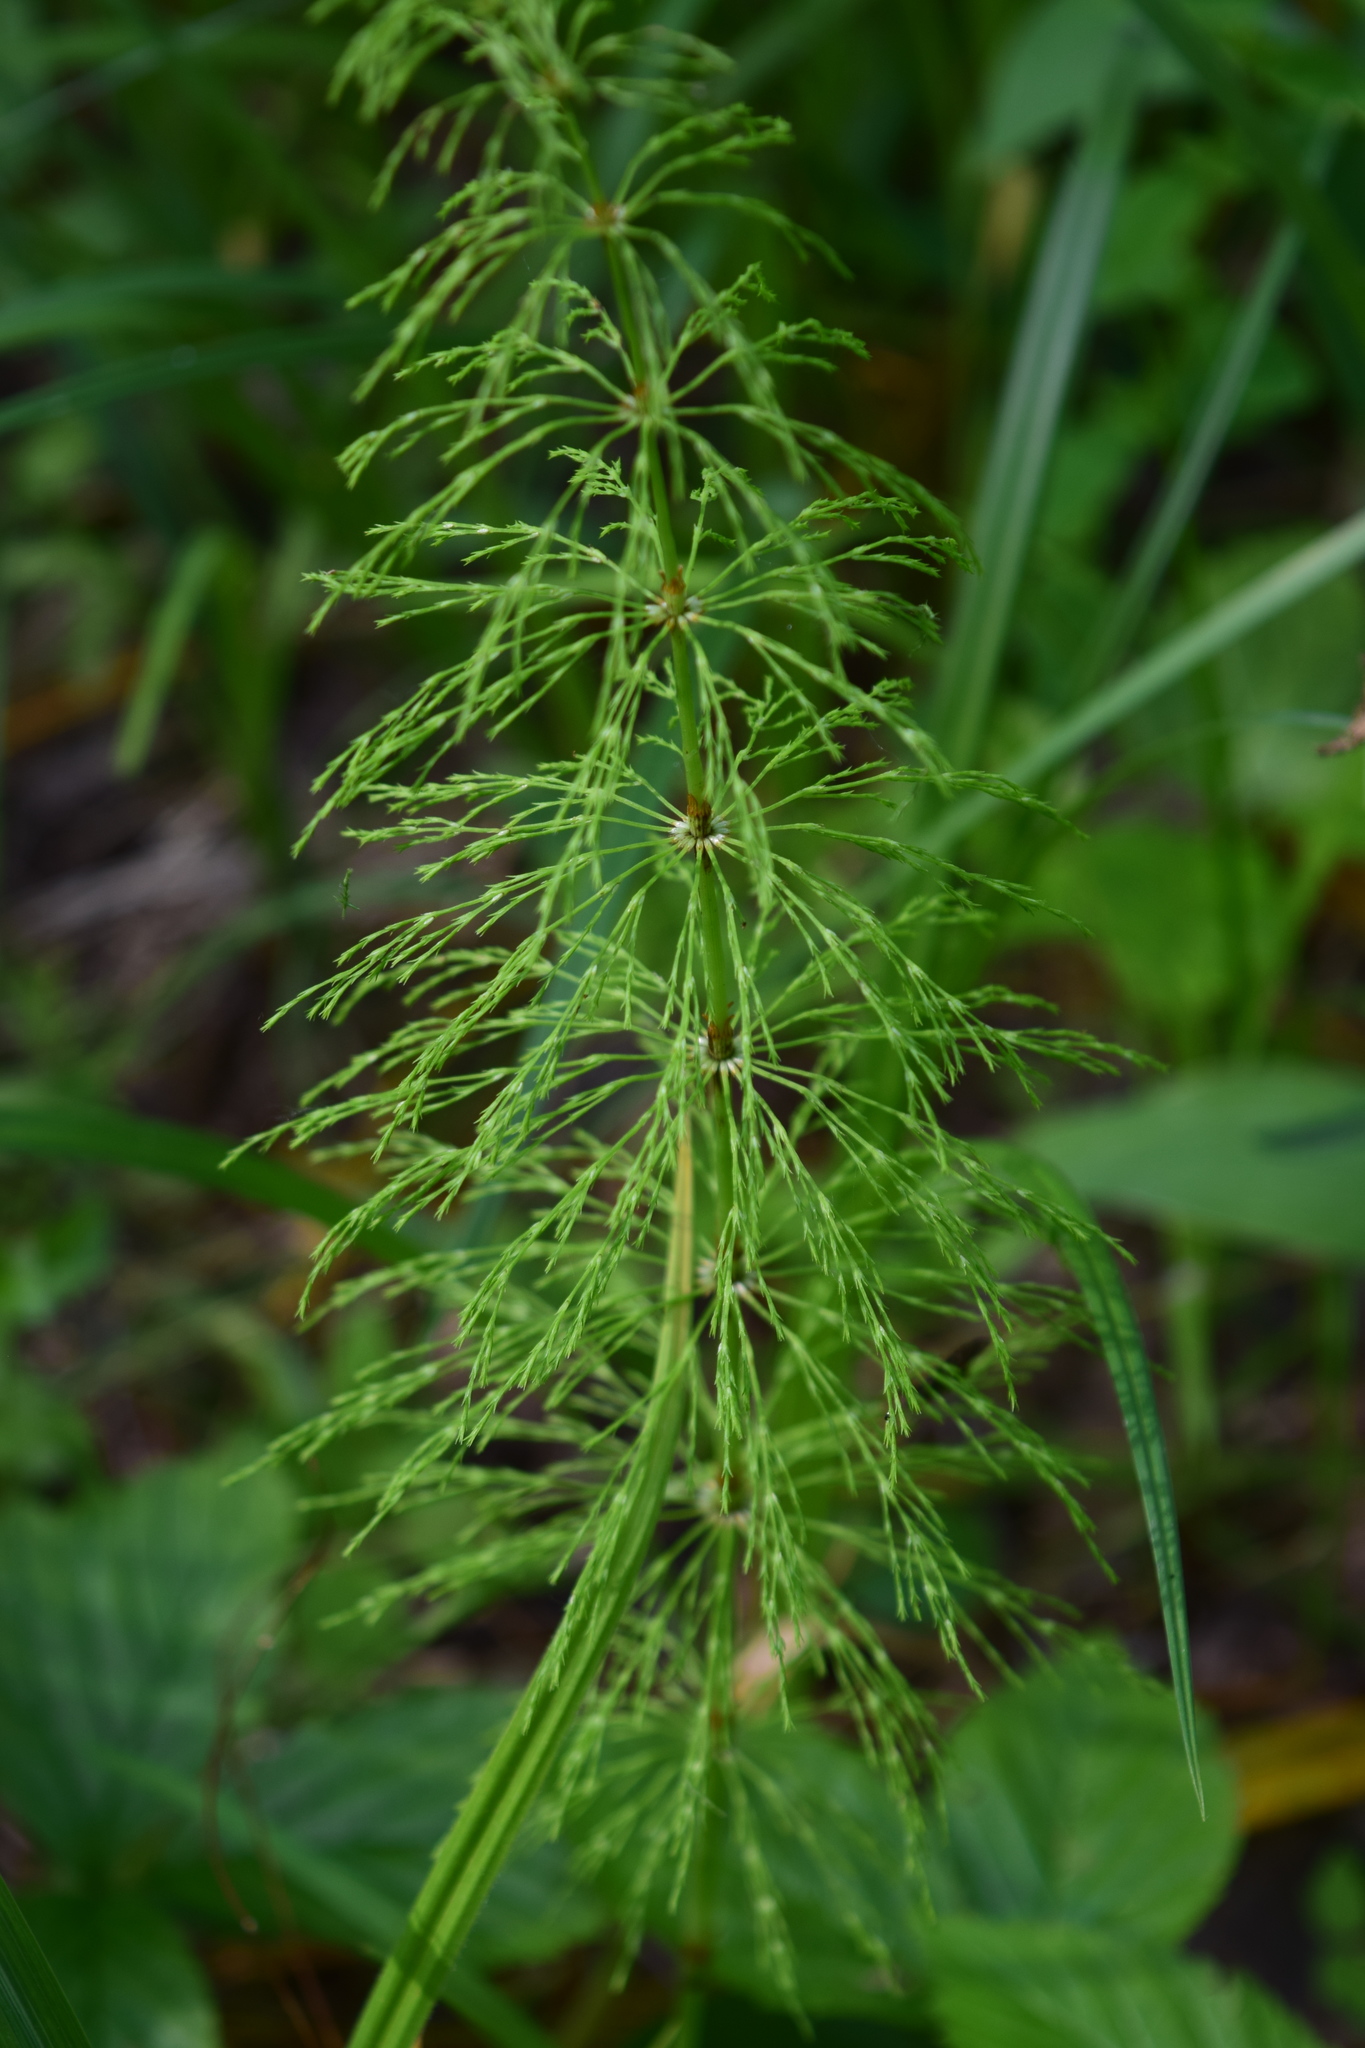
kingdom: Plantae
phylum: Tracheophyta
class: Polypodiopsida
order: Equisetales
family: Equisetaceae
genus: Equisetum
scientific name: Equisetum sylvaticum
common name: Wood horsetail
